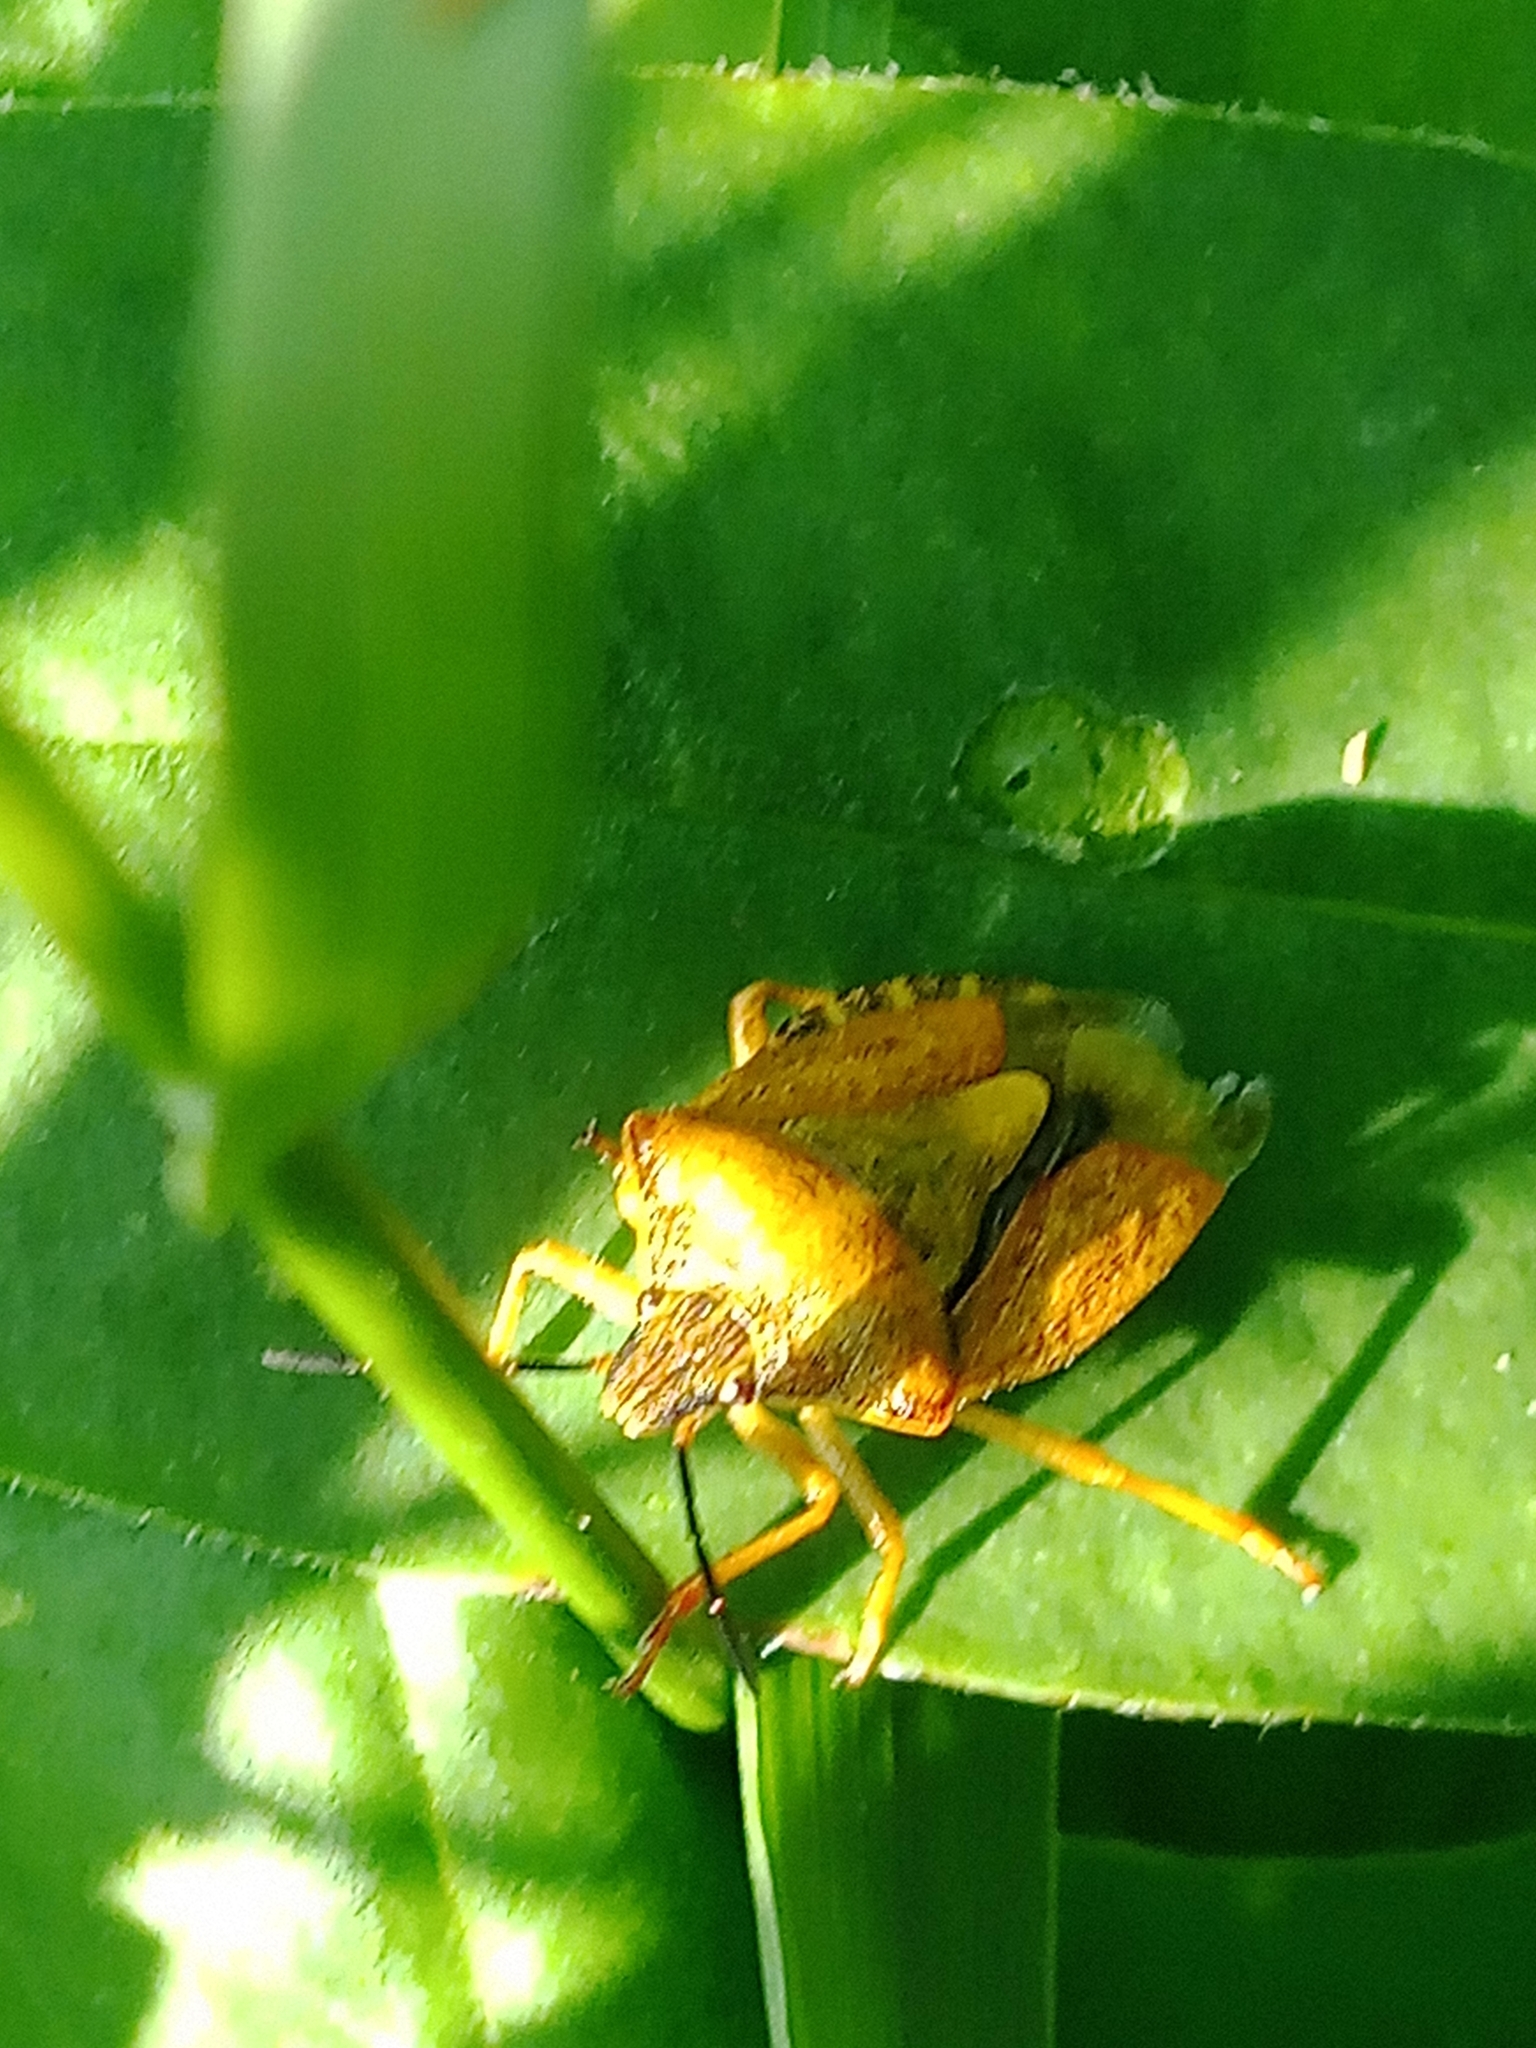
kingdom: Animalia
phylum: Arthropoda
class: Insecta
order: Hemiptera
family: Pentatomidae
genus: Carpocoris
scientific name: Carpocoris purpureipennis
